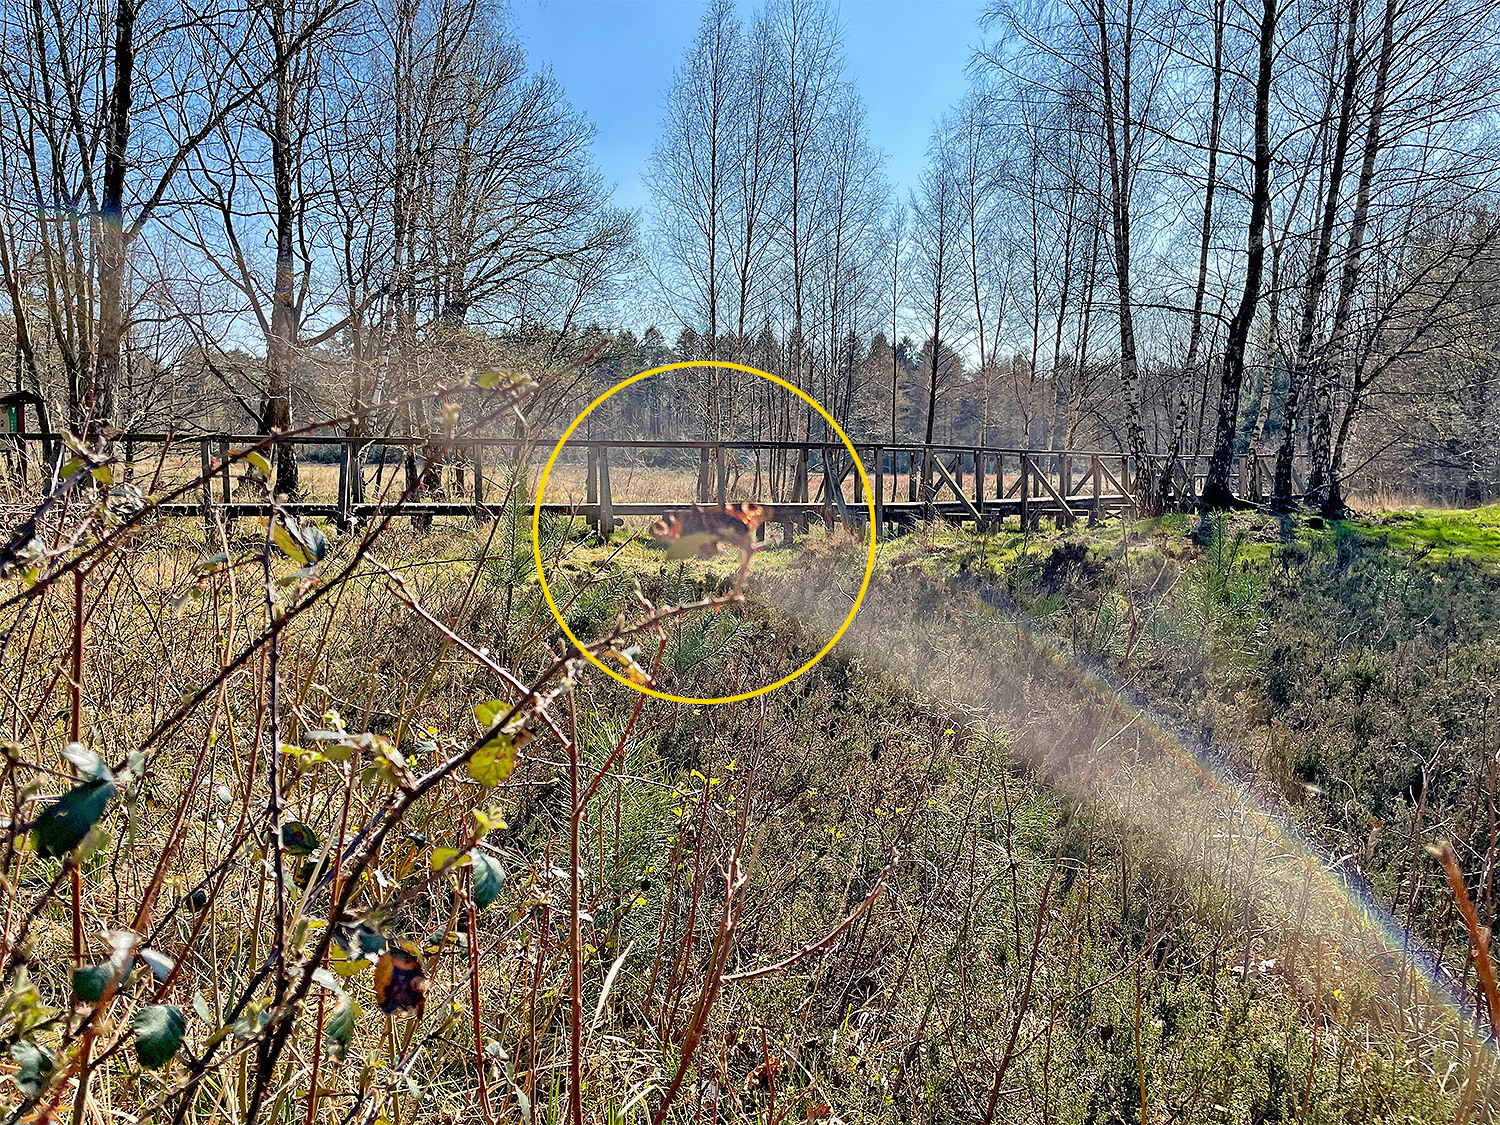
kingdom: Animalia
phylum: Arthropoda
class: Insecta
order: Lepidoptera
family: Nymphalidae
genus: Aglais
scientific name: Aglais io
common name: Peacock
